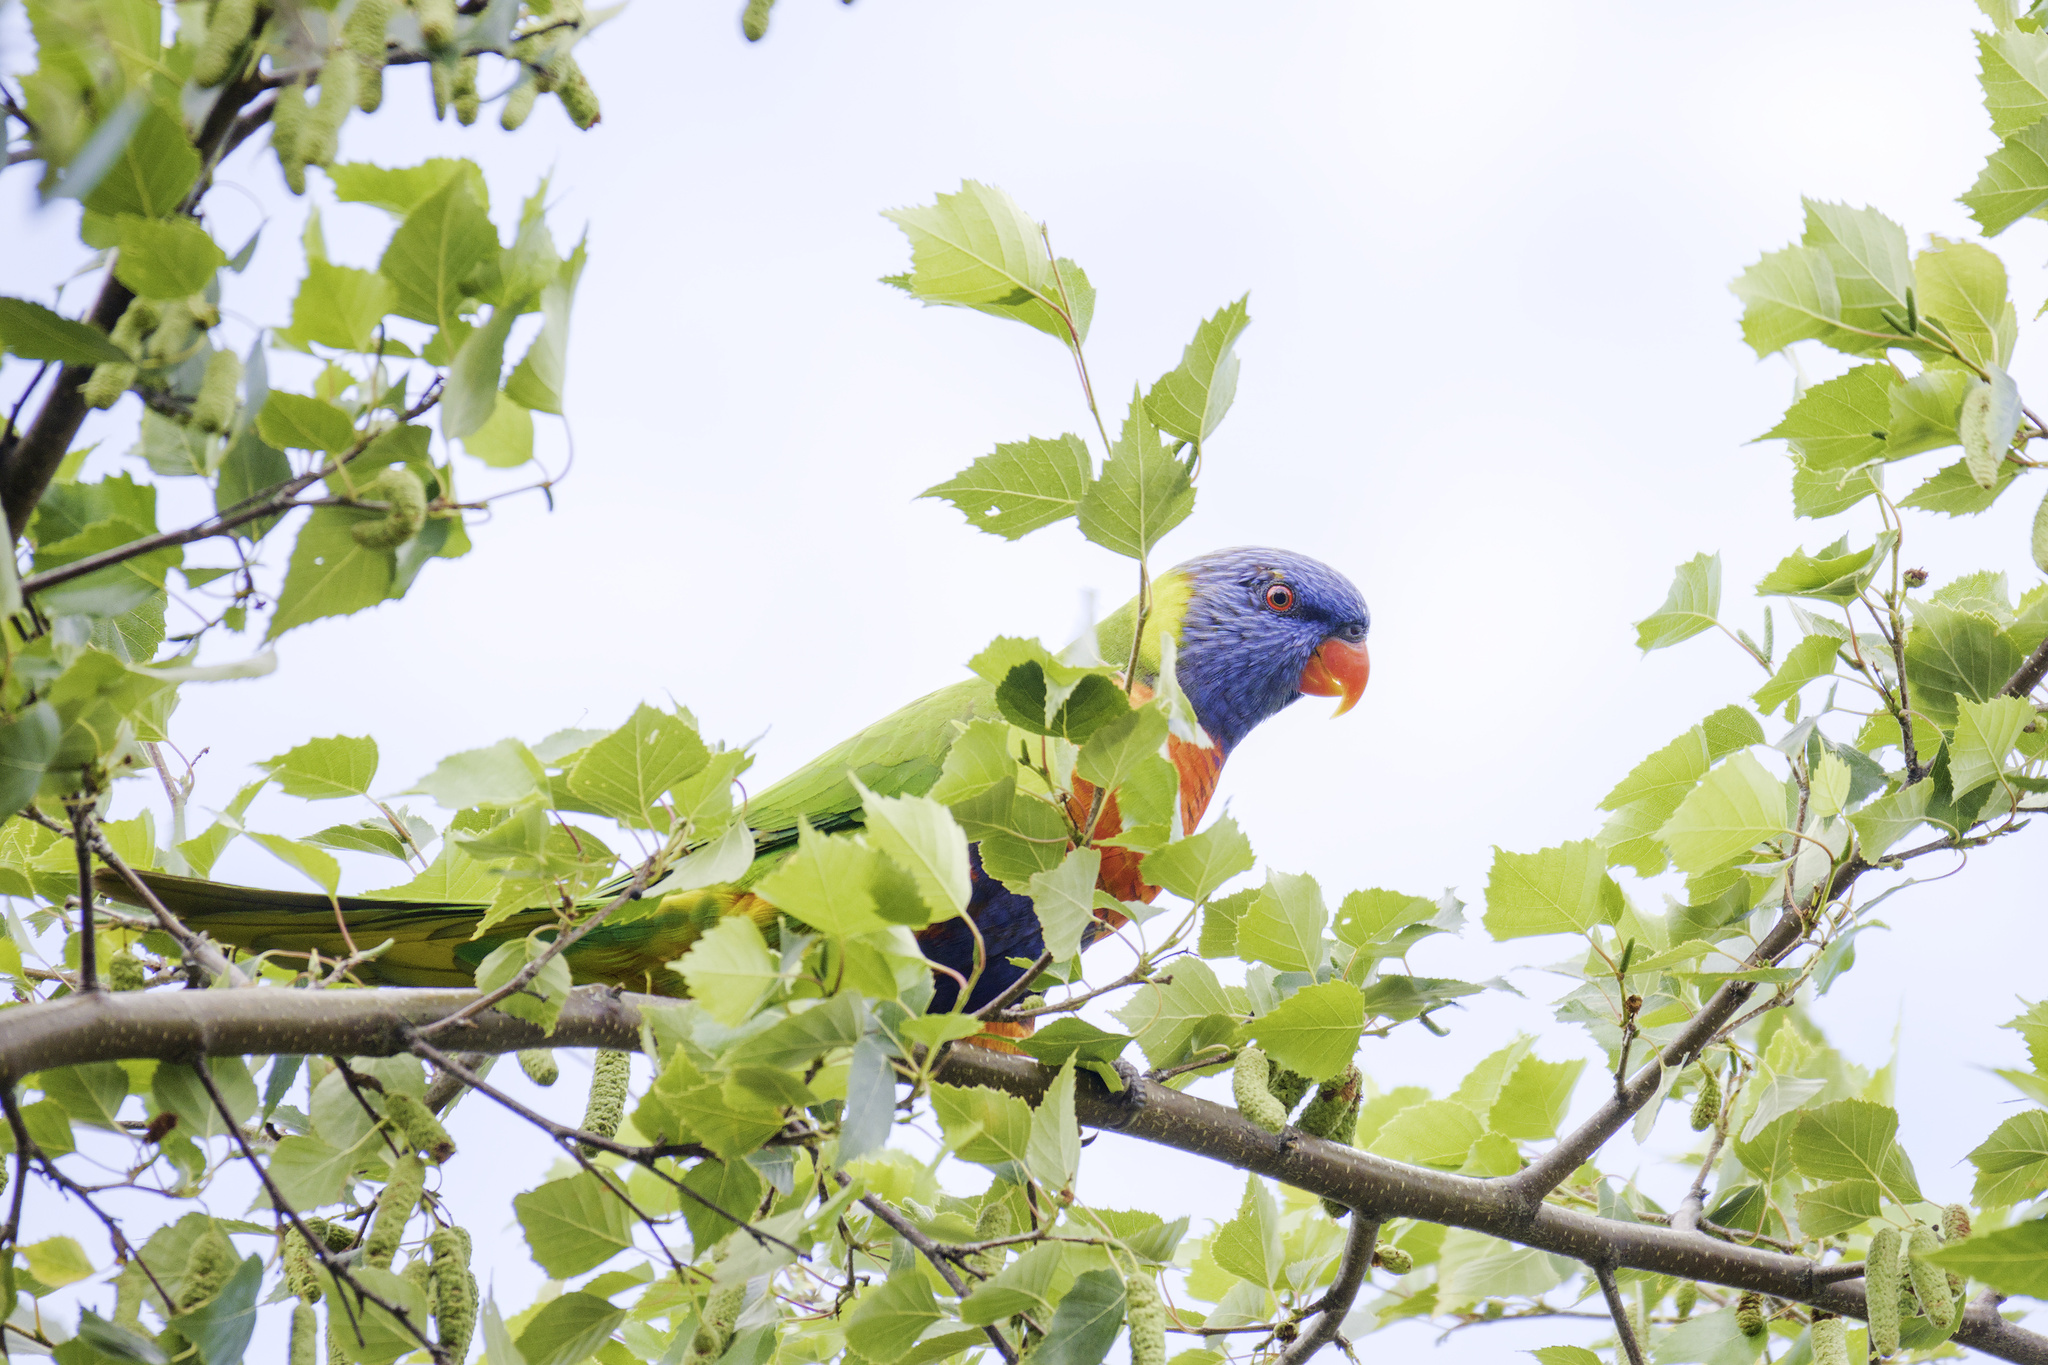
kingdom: Animalia
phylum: Chordata
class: Aves
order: Psittaciformes
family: Psittacidae
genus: Trichoglossus
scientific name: Trichoglossus haematodus
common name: Coconut lorikeet
